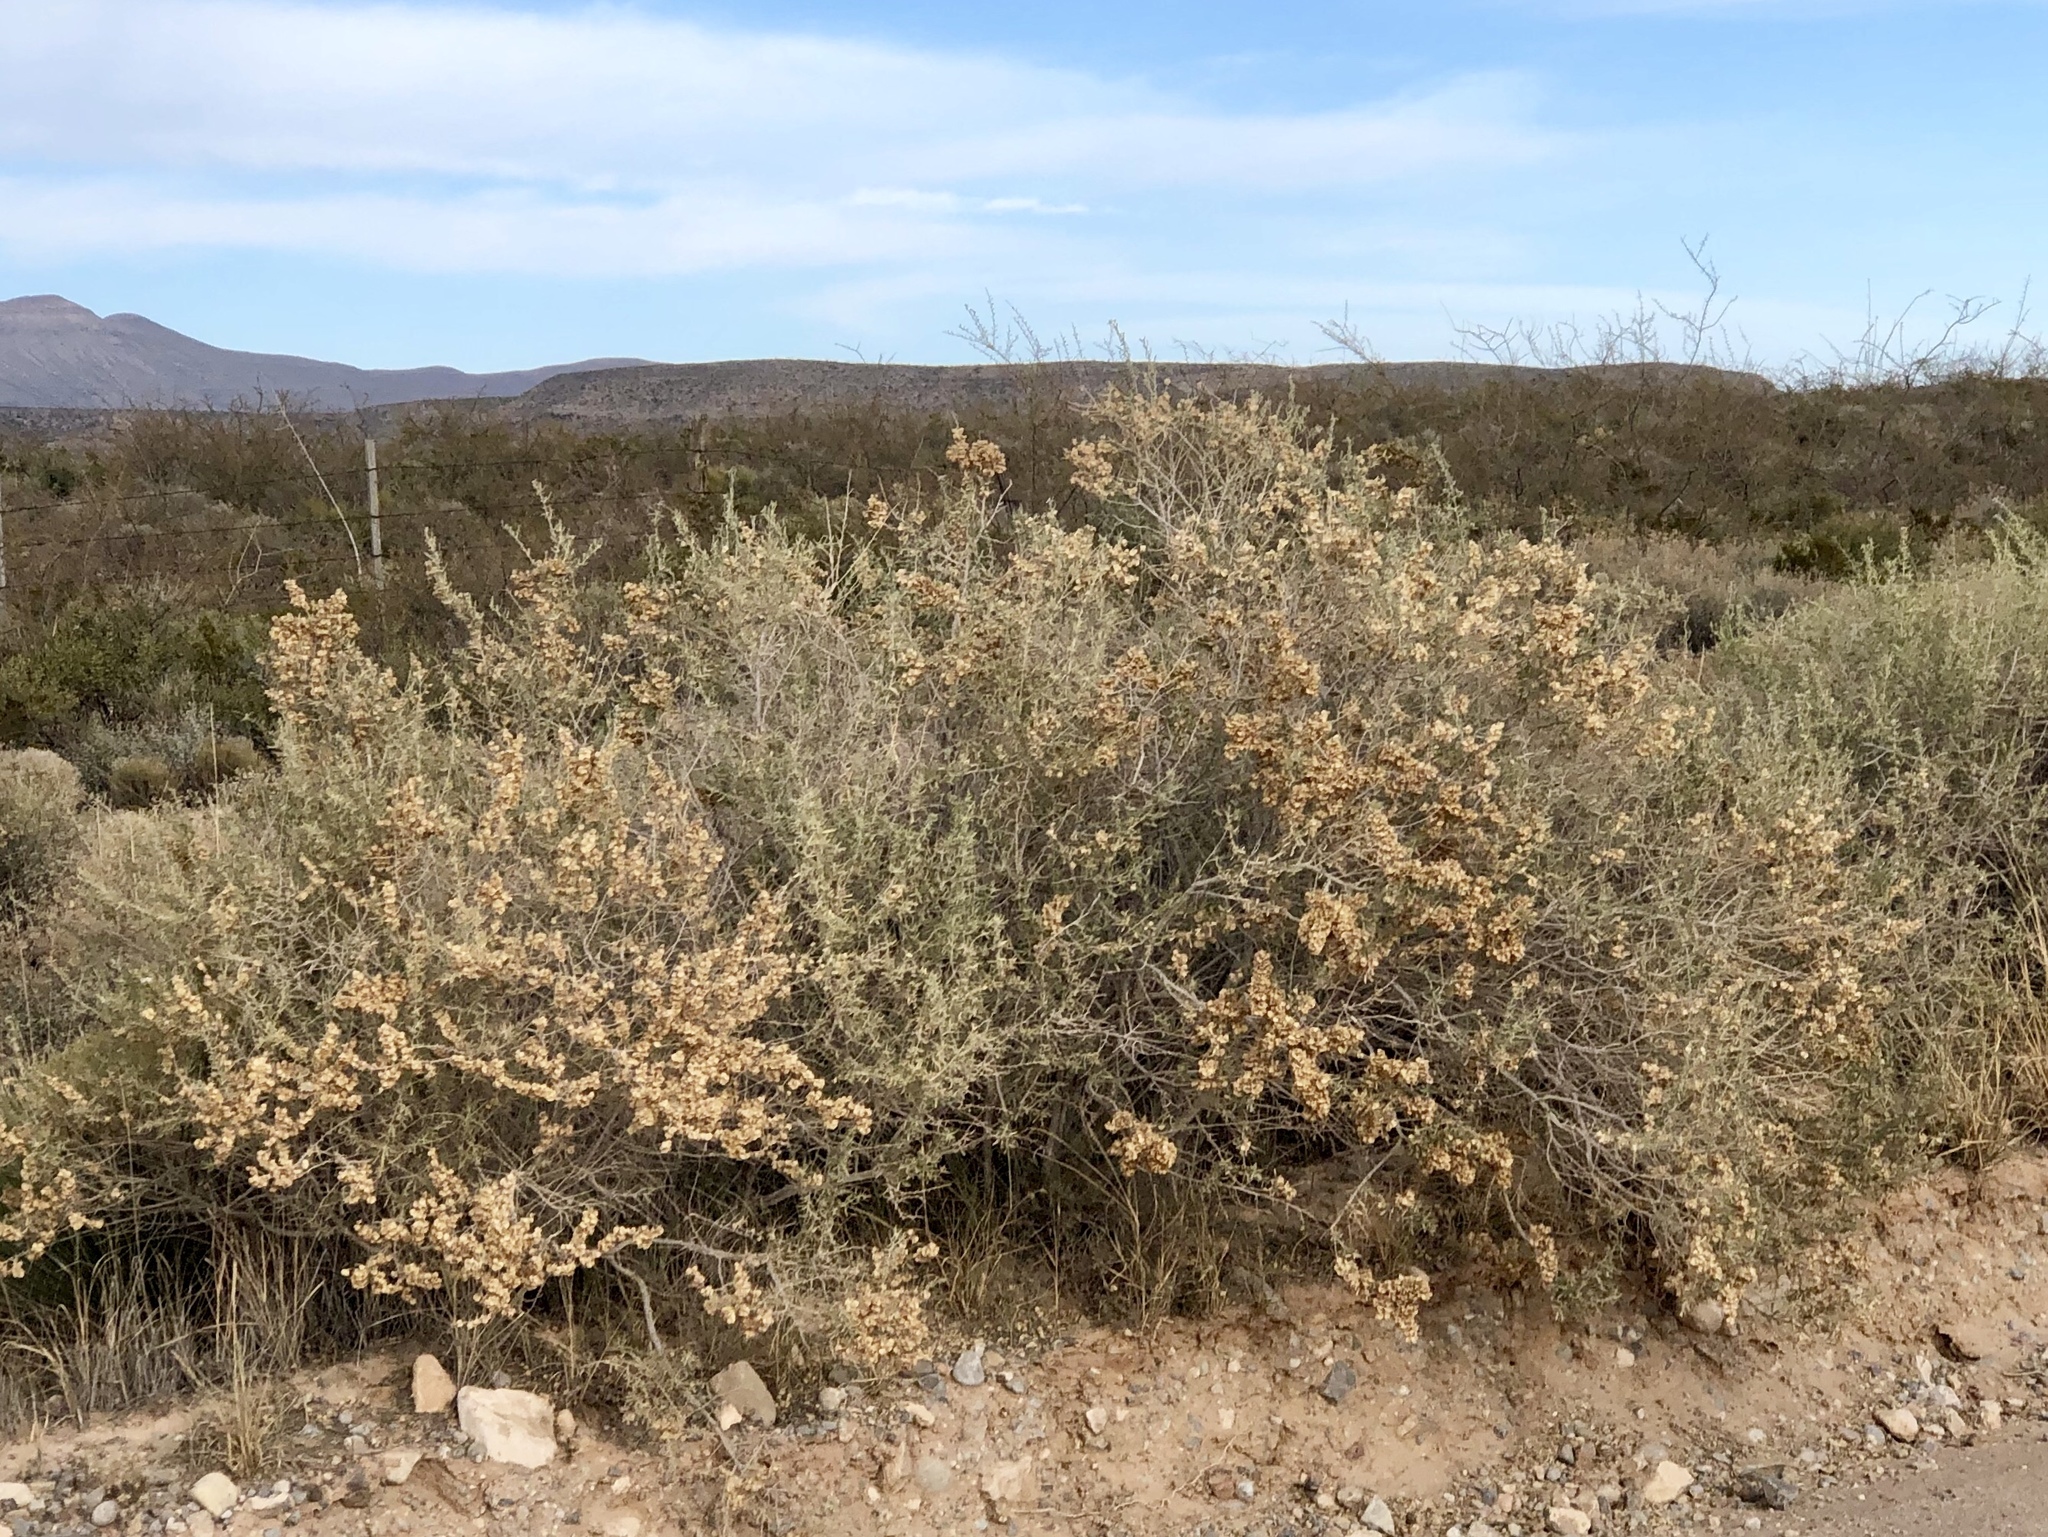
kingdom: Plantae
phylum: Tracheophyta
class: Magnoliopsida
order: Caryophyllales
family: Amaranthaceae
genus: Atriplex
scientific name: Atriplex canescens
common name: Four-wing saltbush
